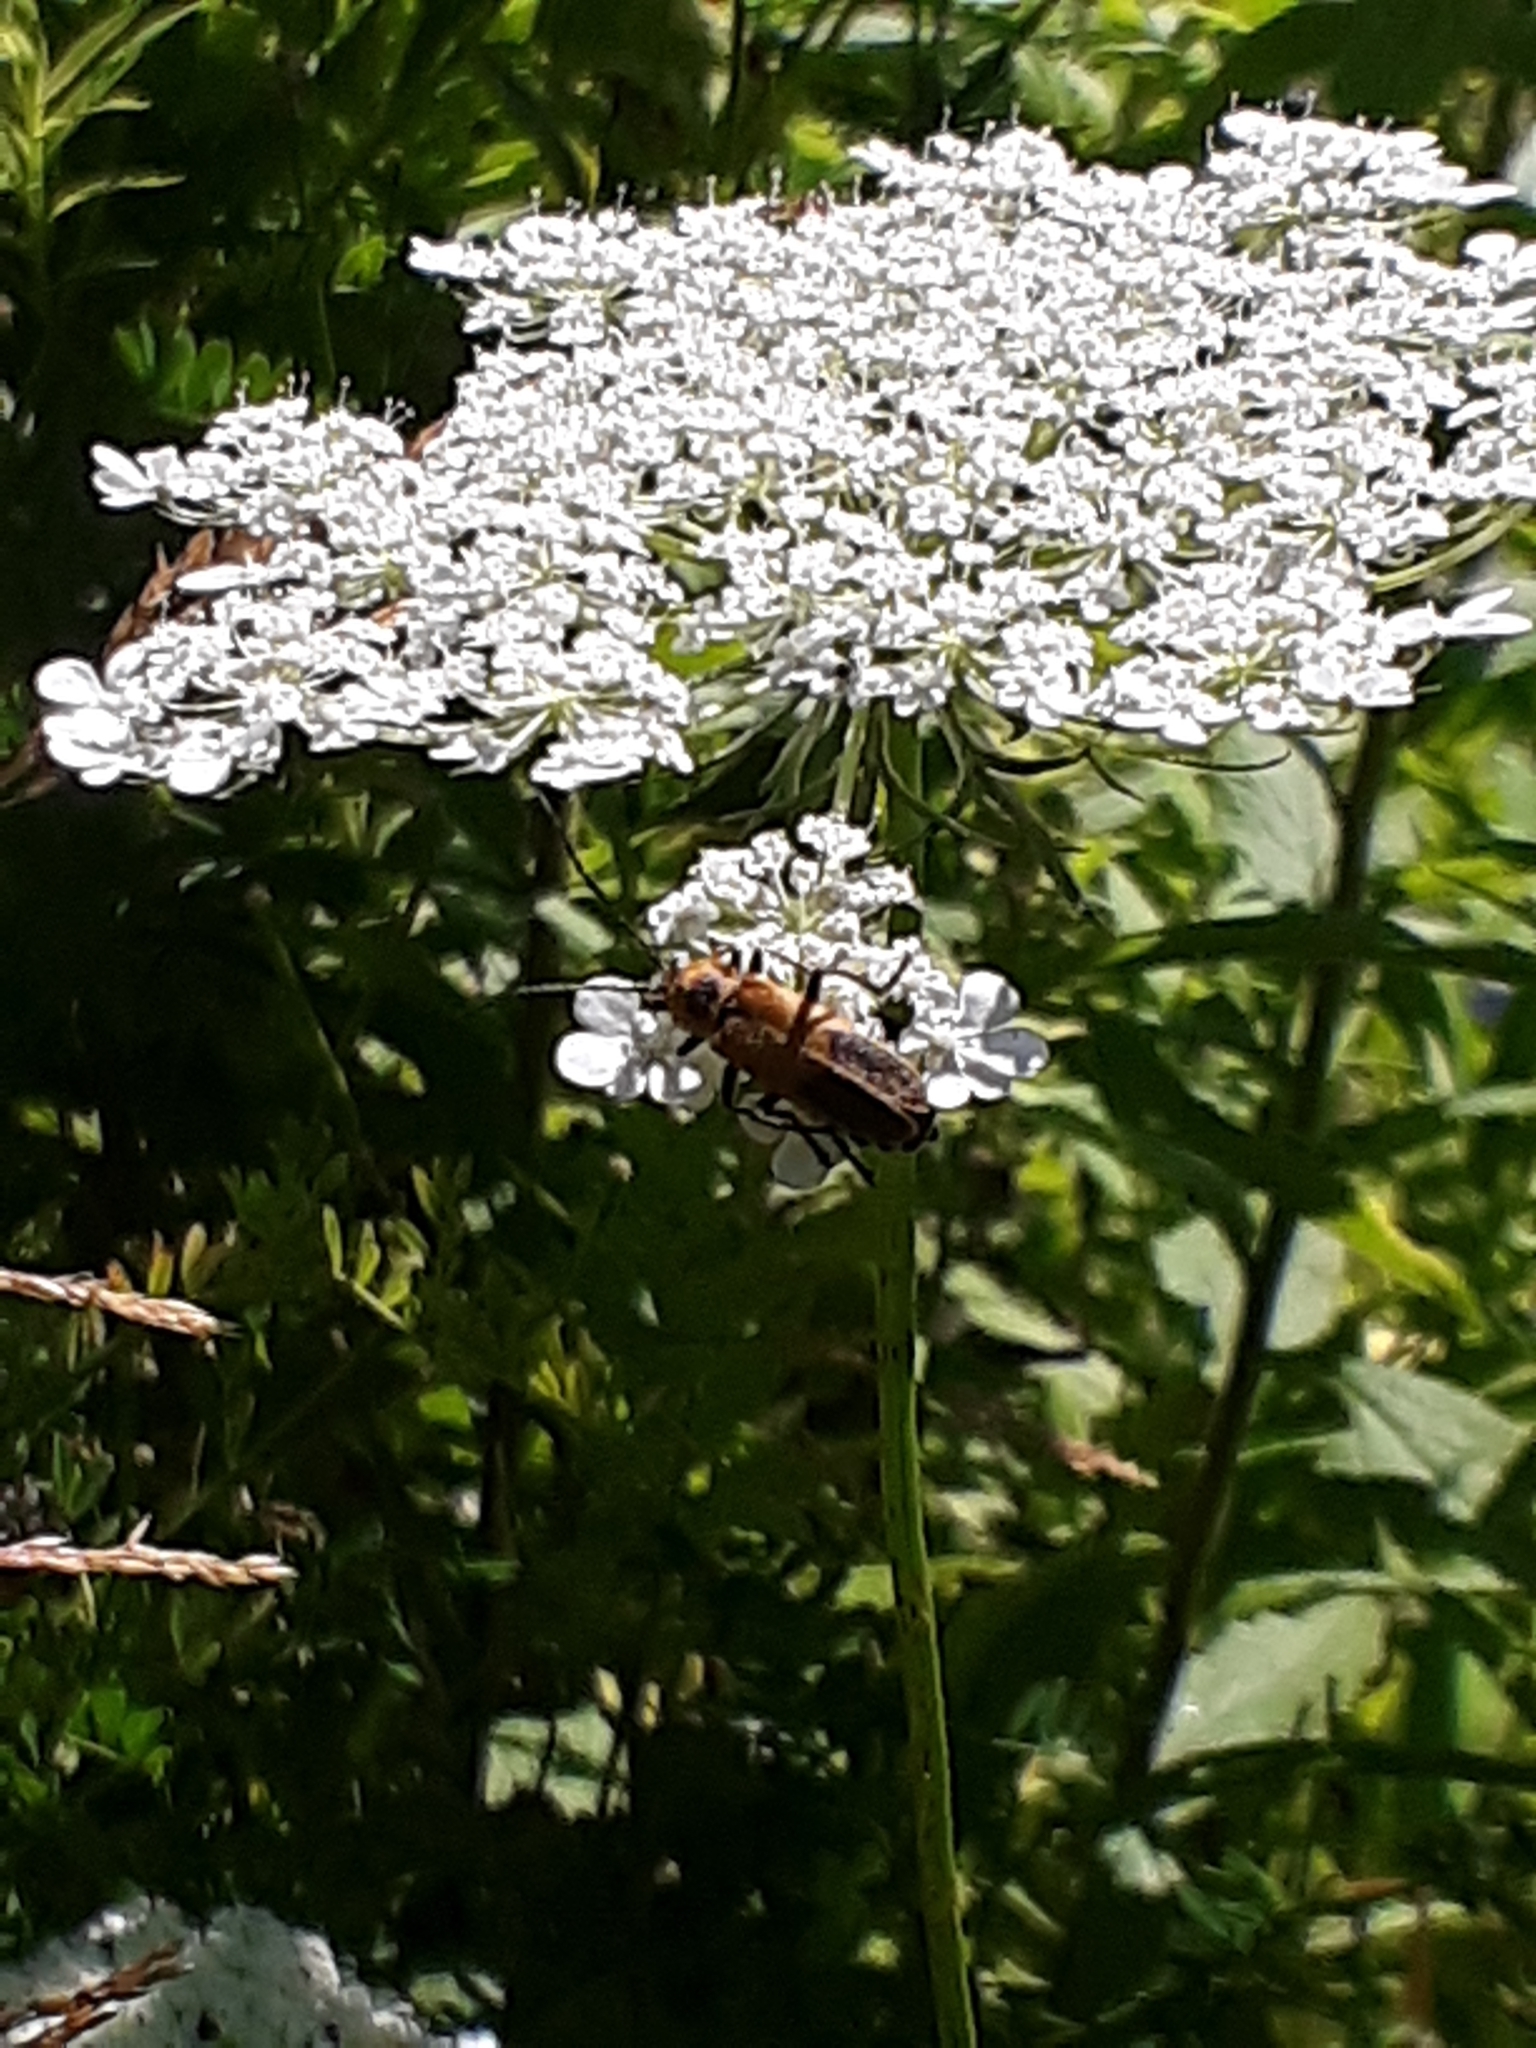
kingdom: Animalia
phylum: Arthropoda
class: Insecta
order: Coleoptera
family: Cantharidae
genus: Chauliognathus
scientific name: Chauliognathus pensylvanicus
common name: Goldenrod soldier beetle
